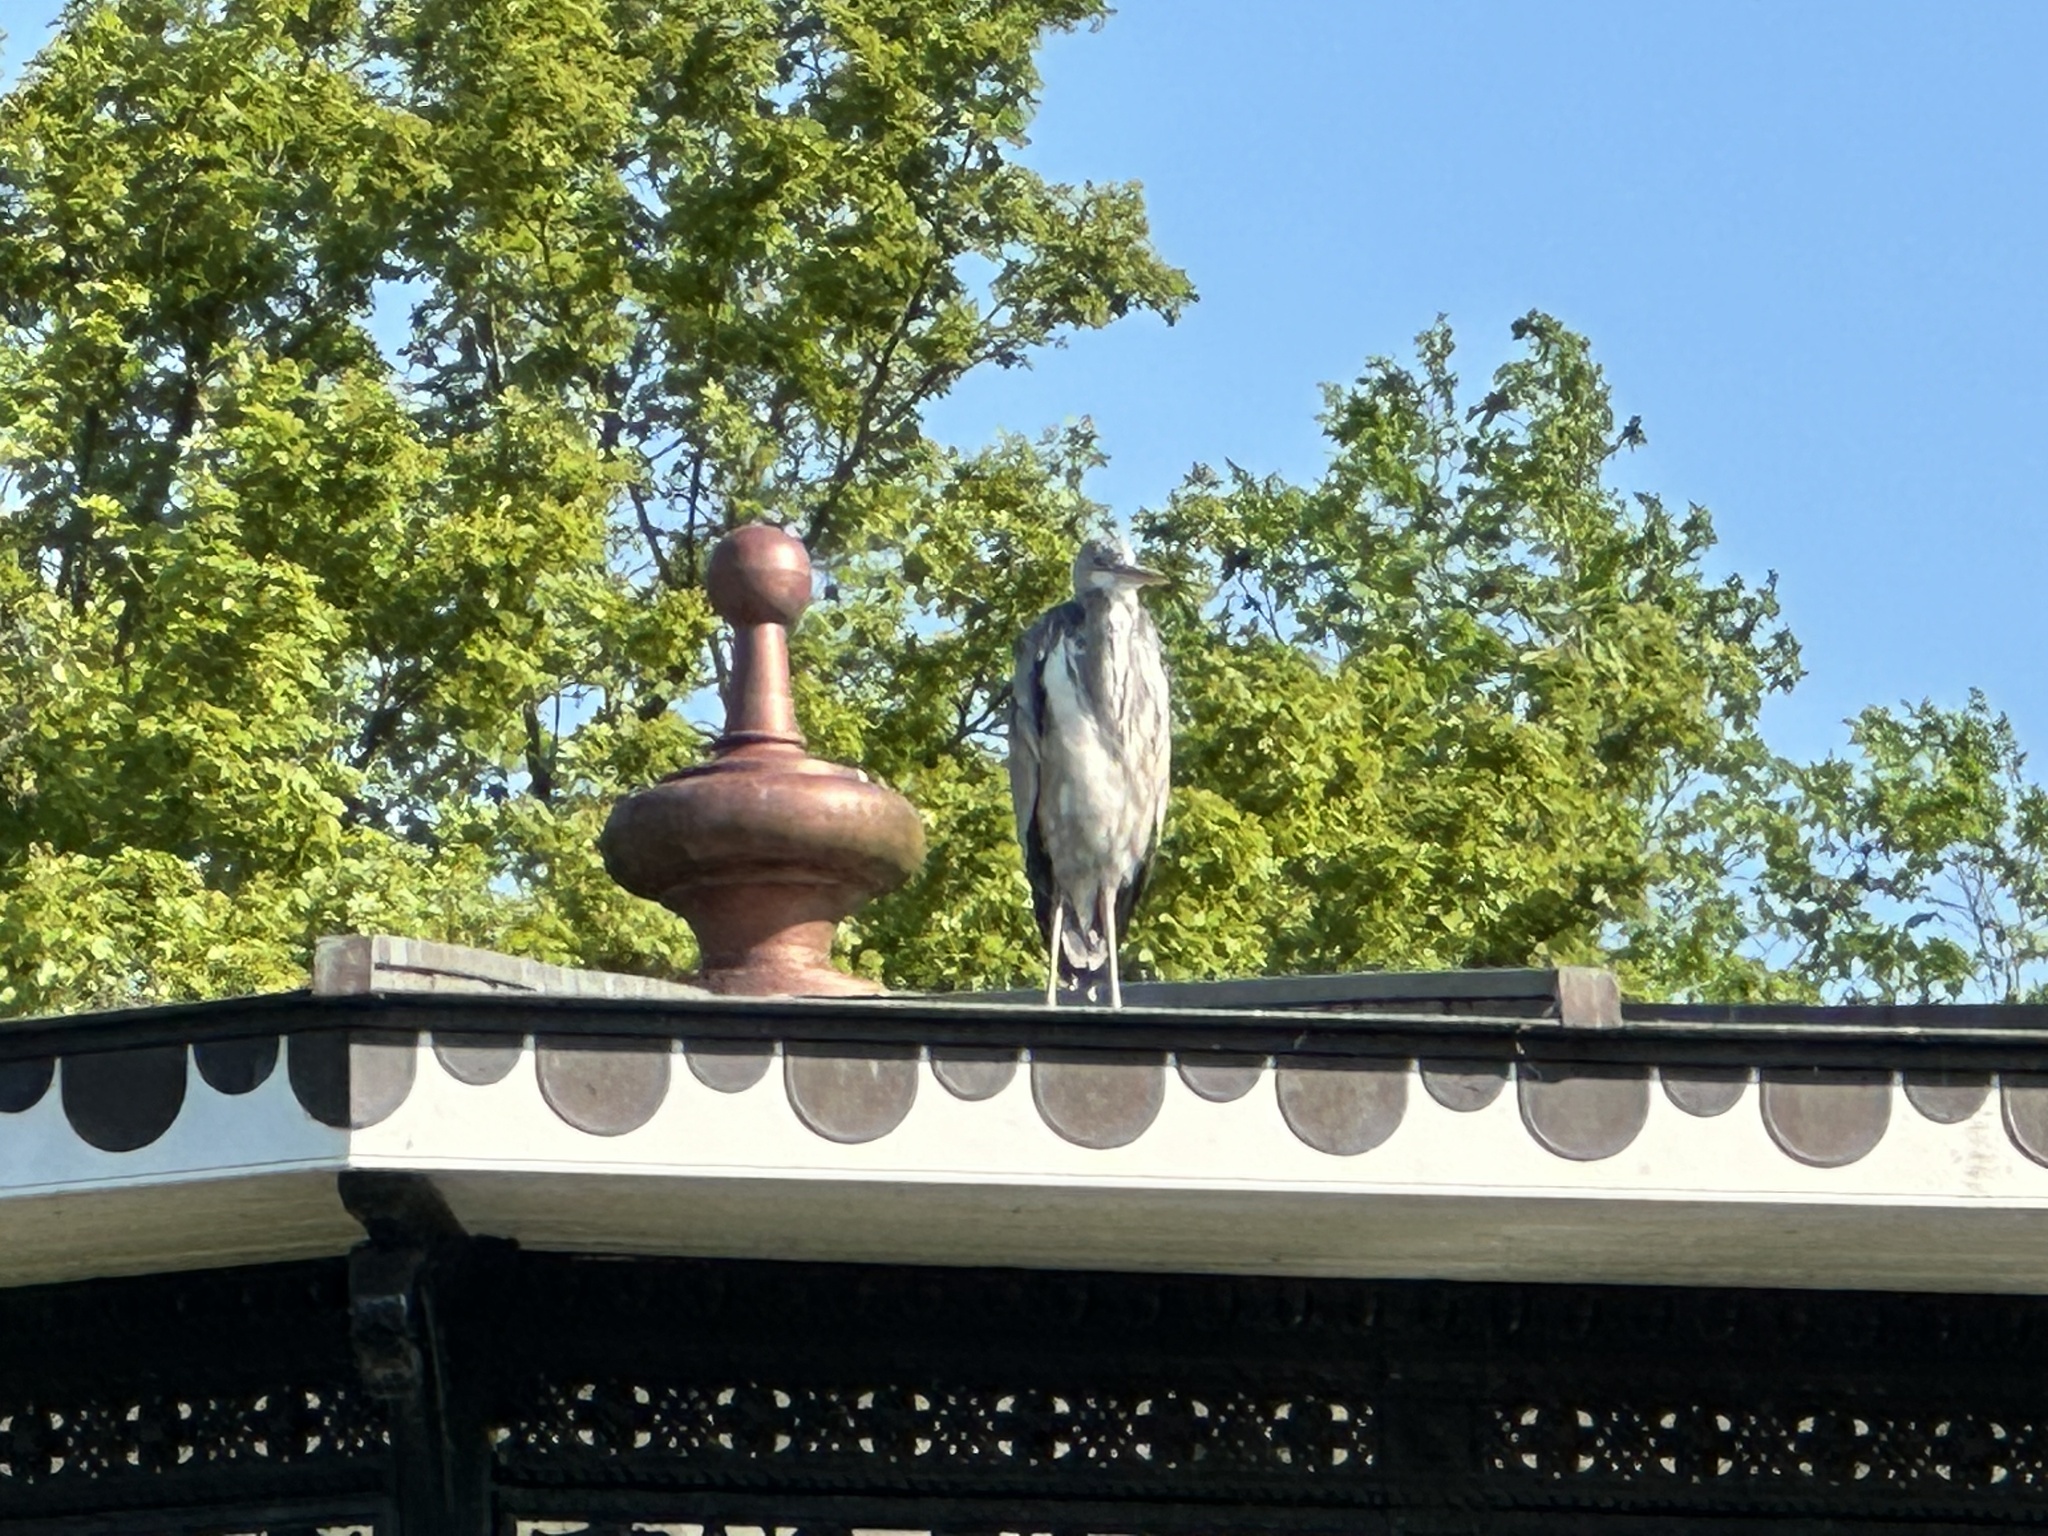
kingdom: Animalia
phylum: Chordata
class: Aves
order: Pelecaniformes
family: Ardeidae
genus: Ardea
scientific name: Ardea cinerea
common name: Grey heron
